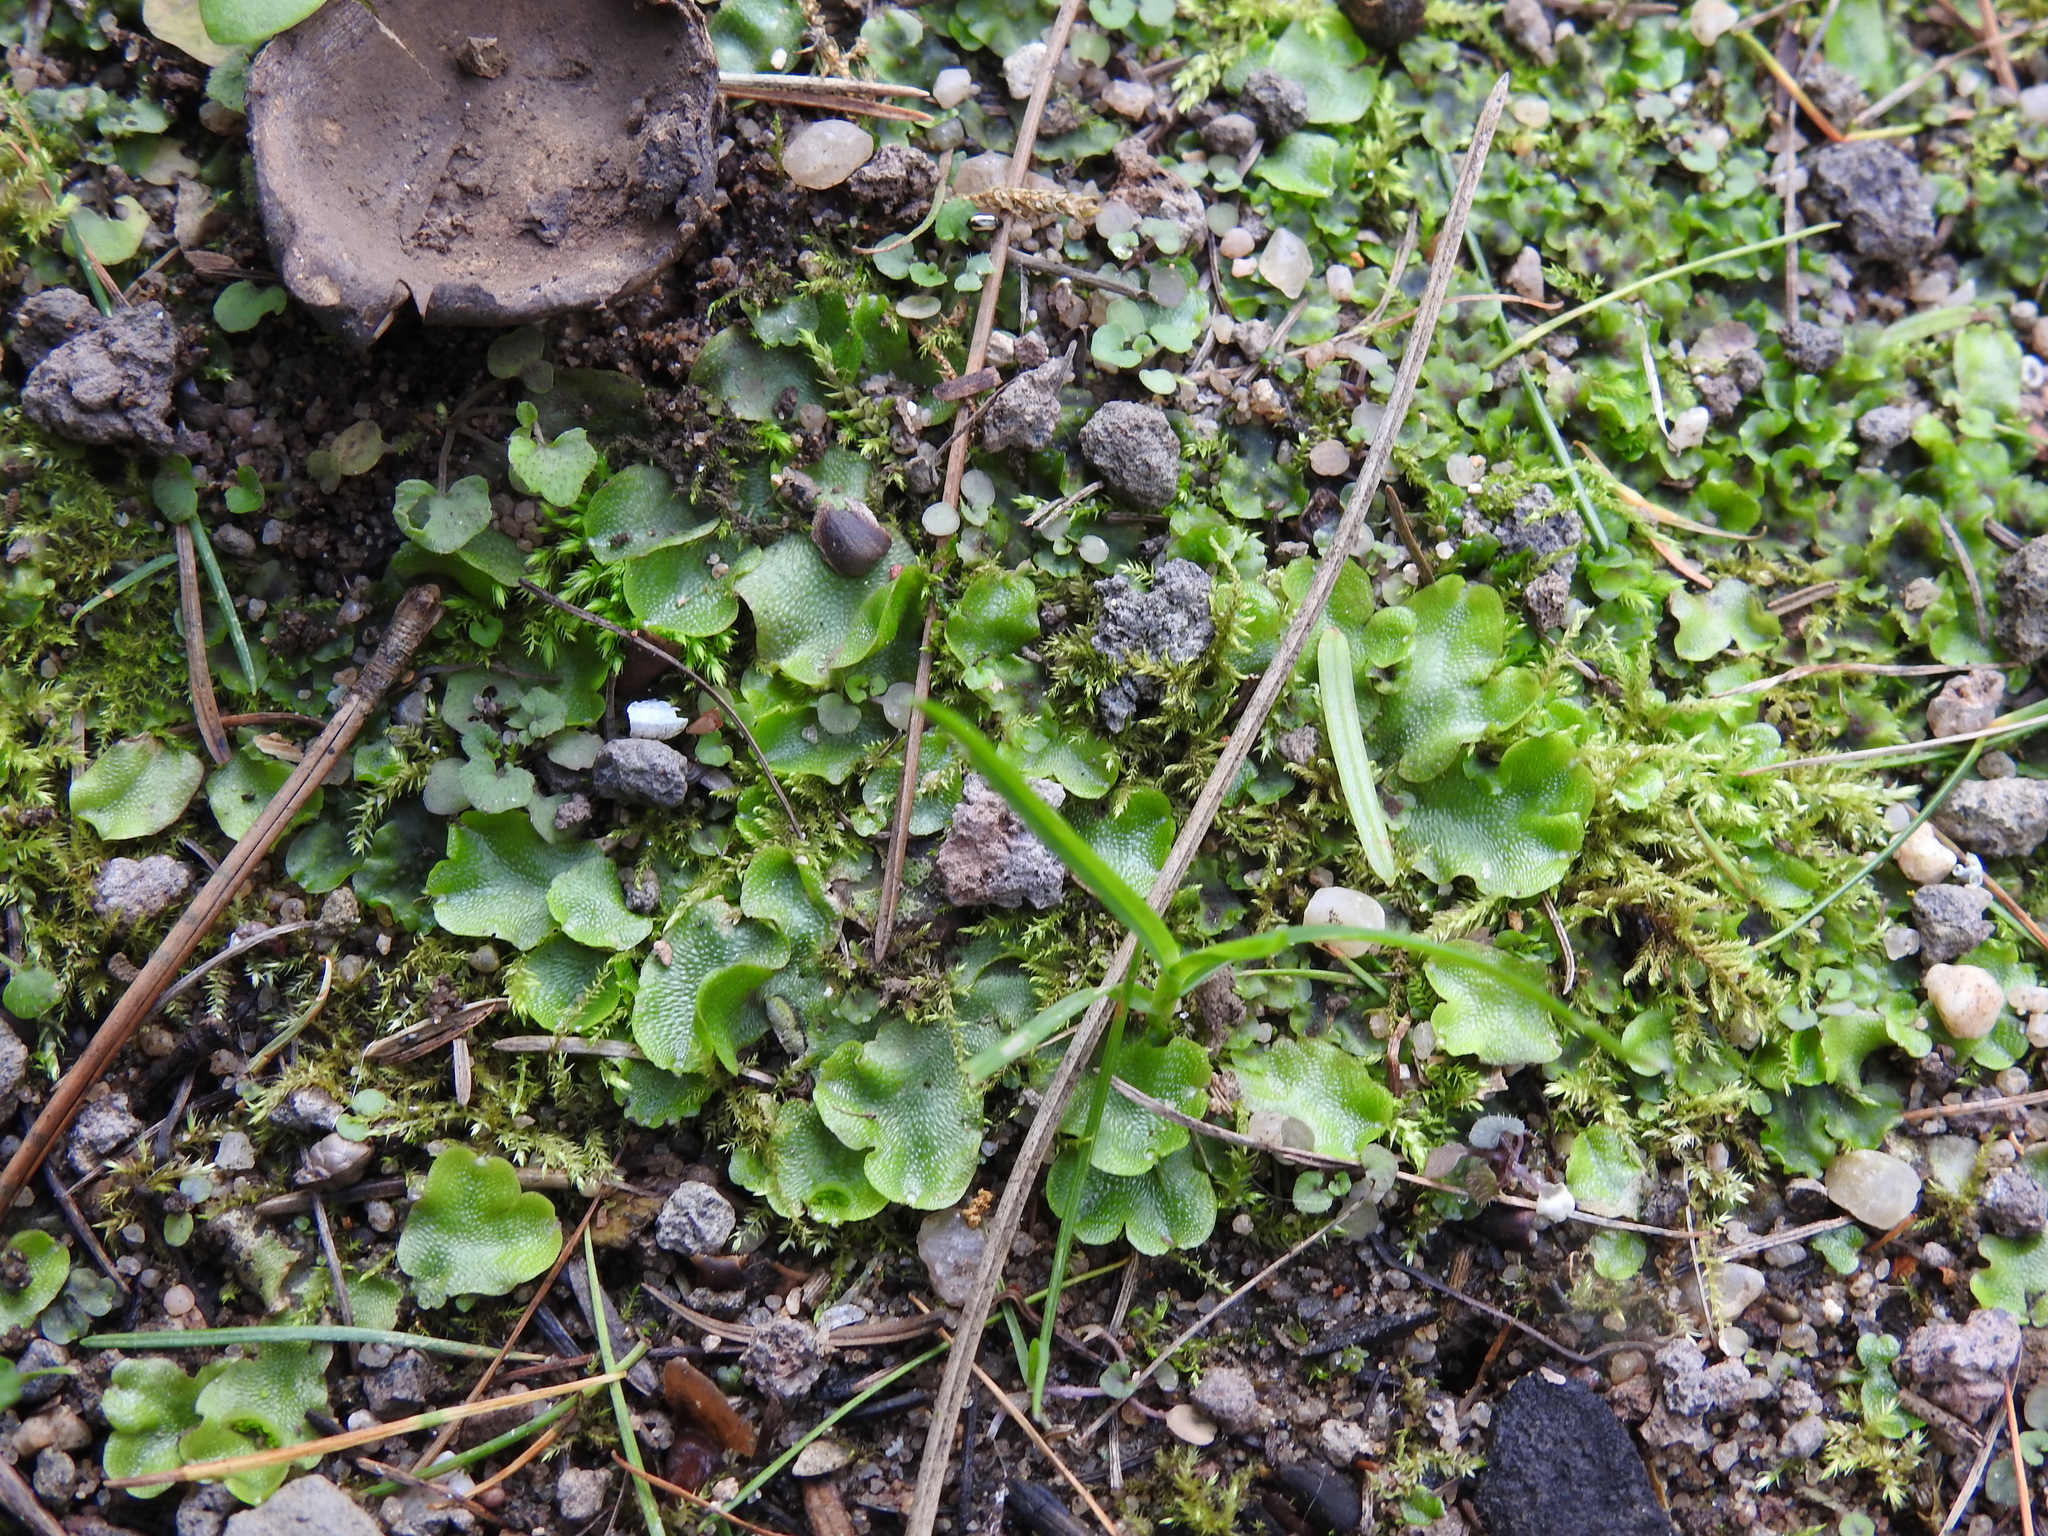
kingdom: Plantae
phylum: Marchantiophyta
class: Marchantiopsida
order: Lunulariales
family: Lunulariaceae
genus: Lunularia
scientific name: Lunularia cruciata
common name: Crescent-cup liverwort
